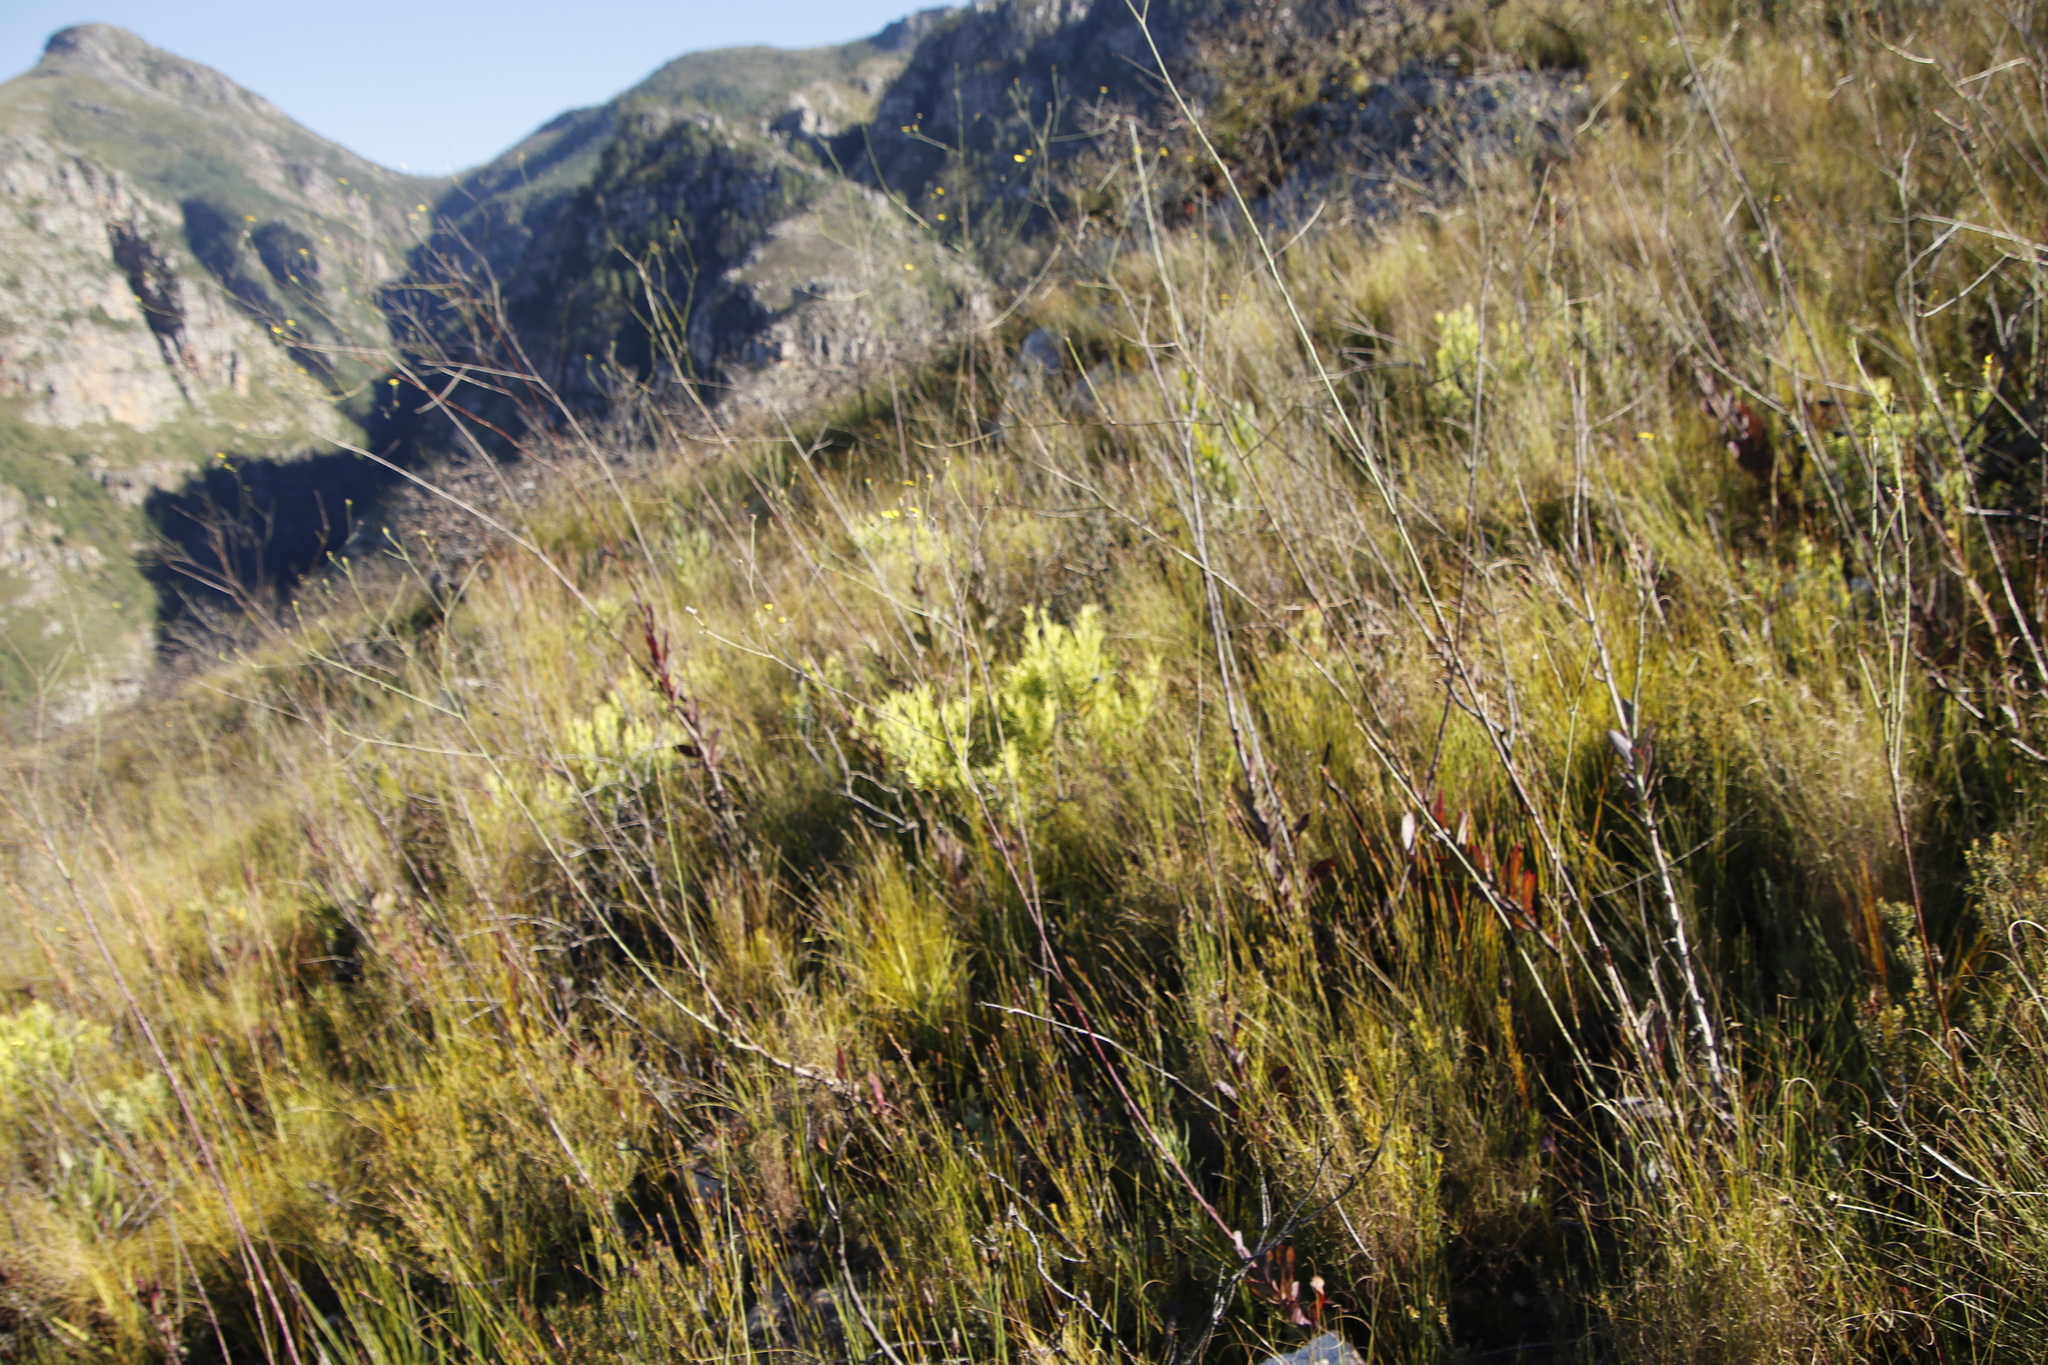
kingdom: Plantae
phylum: Tracheophyta
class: Magnoliopsida
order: Proteales
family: Proteaceae
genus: Leucadendron
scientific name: Leucadendron salignum
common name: Common sunshine conebush
